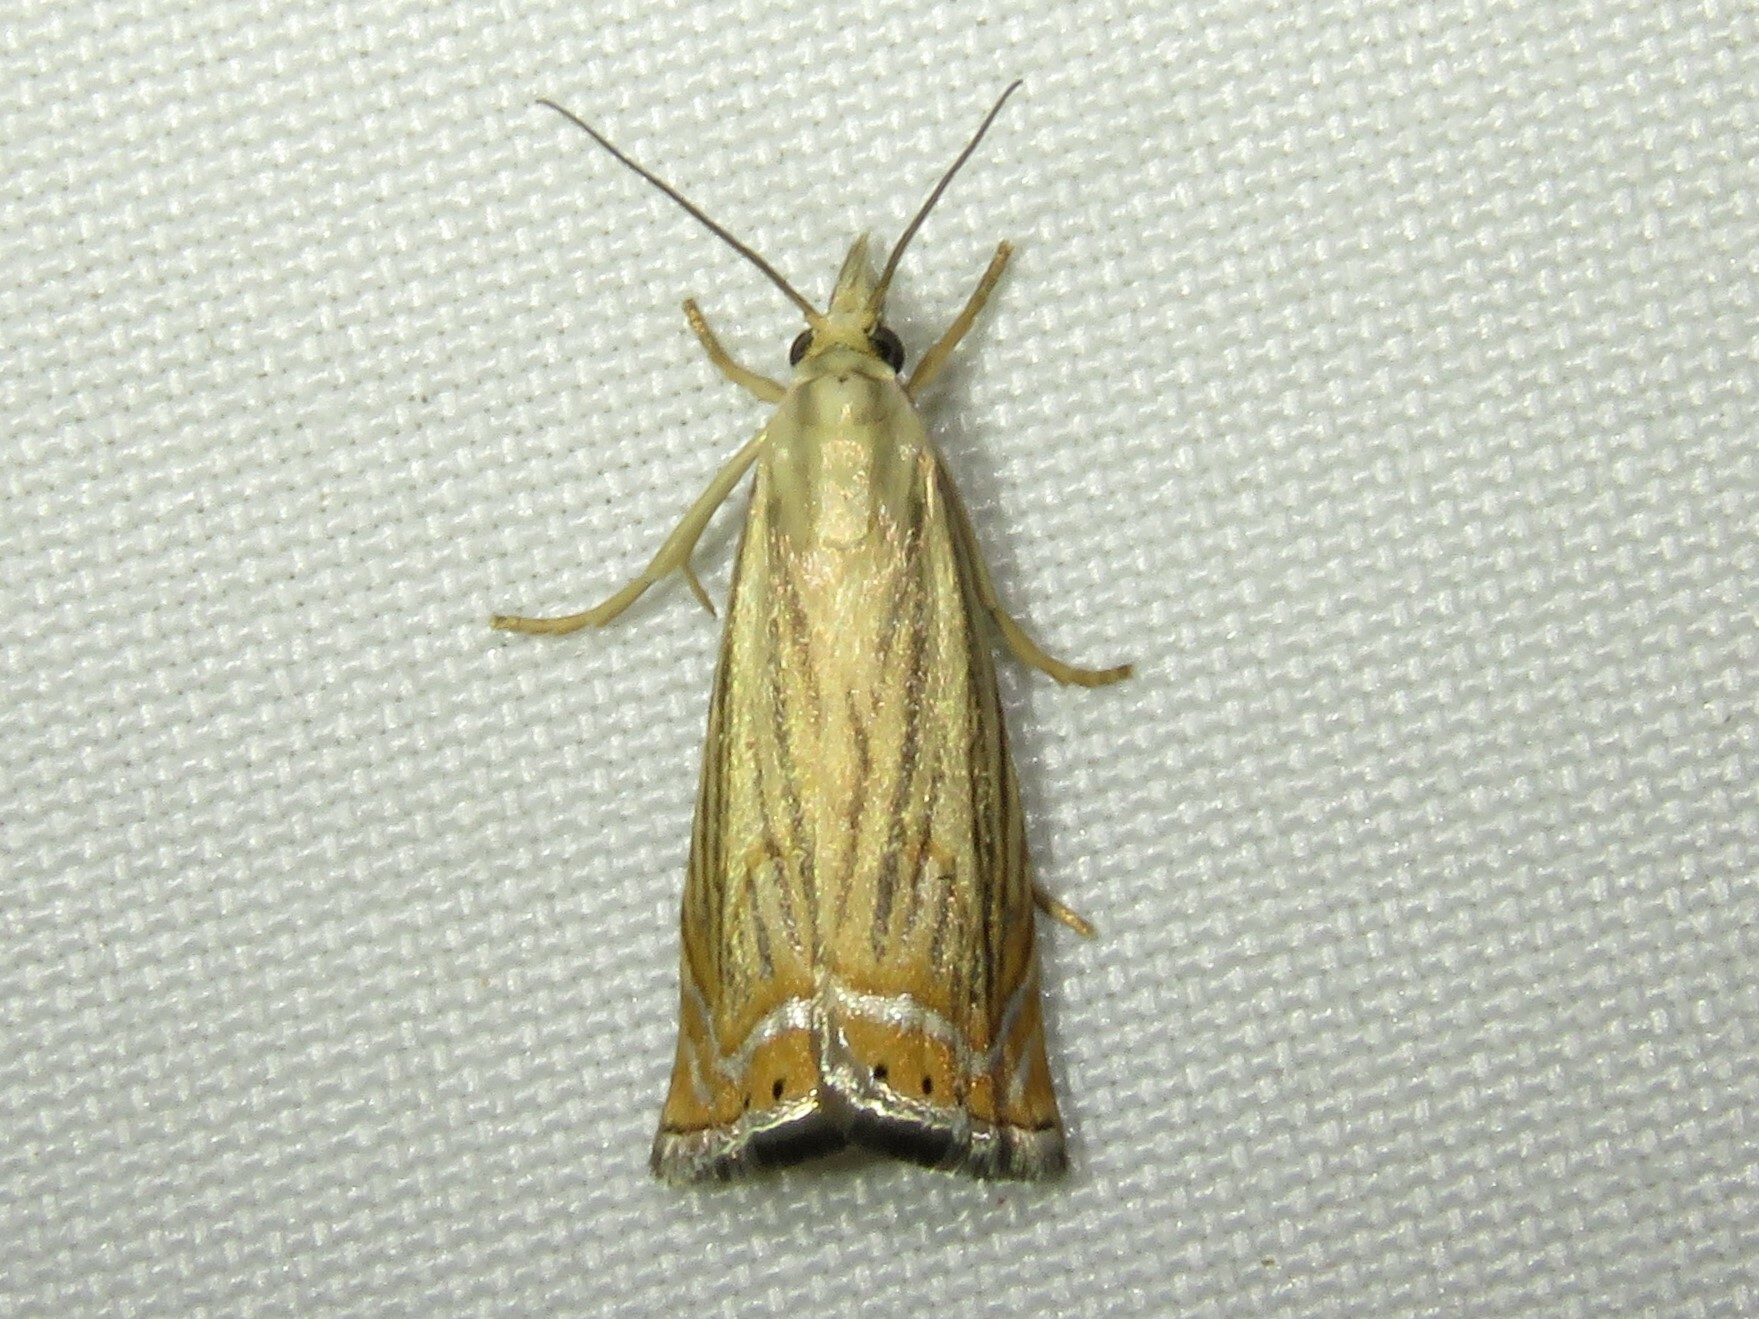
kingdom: Animalia
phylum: Arthropoda
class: Insecta
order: Lepidoptera
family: Crambidae
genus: Chrysoteuchia
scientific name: Chrysoteuchia topiarius
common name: Topiary grass-veneer
